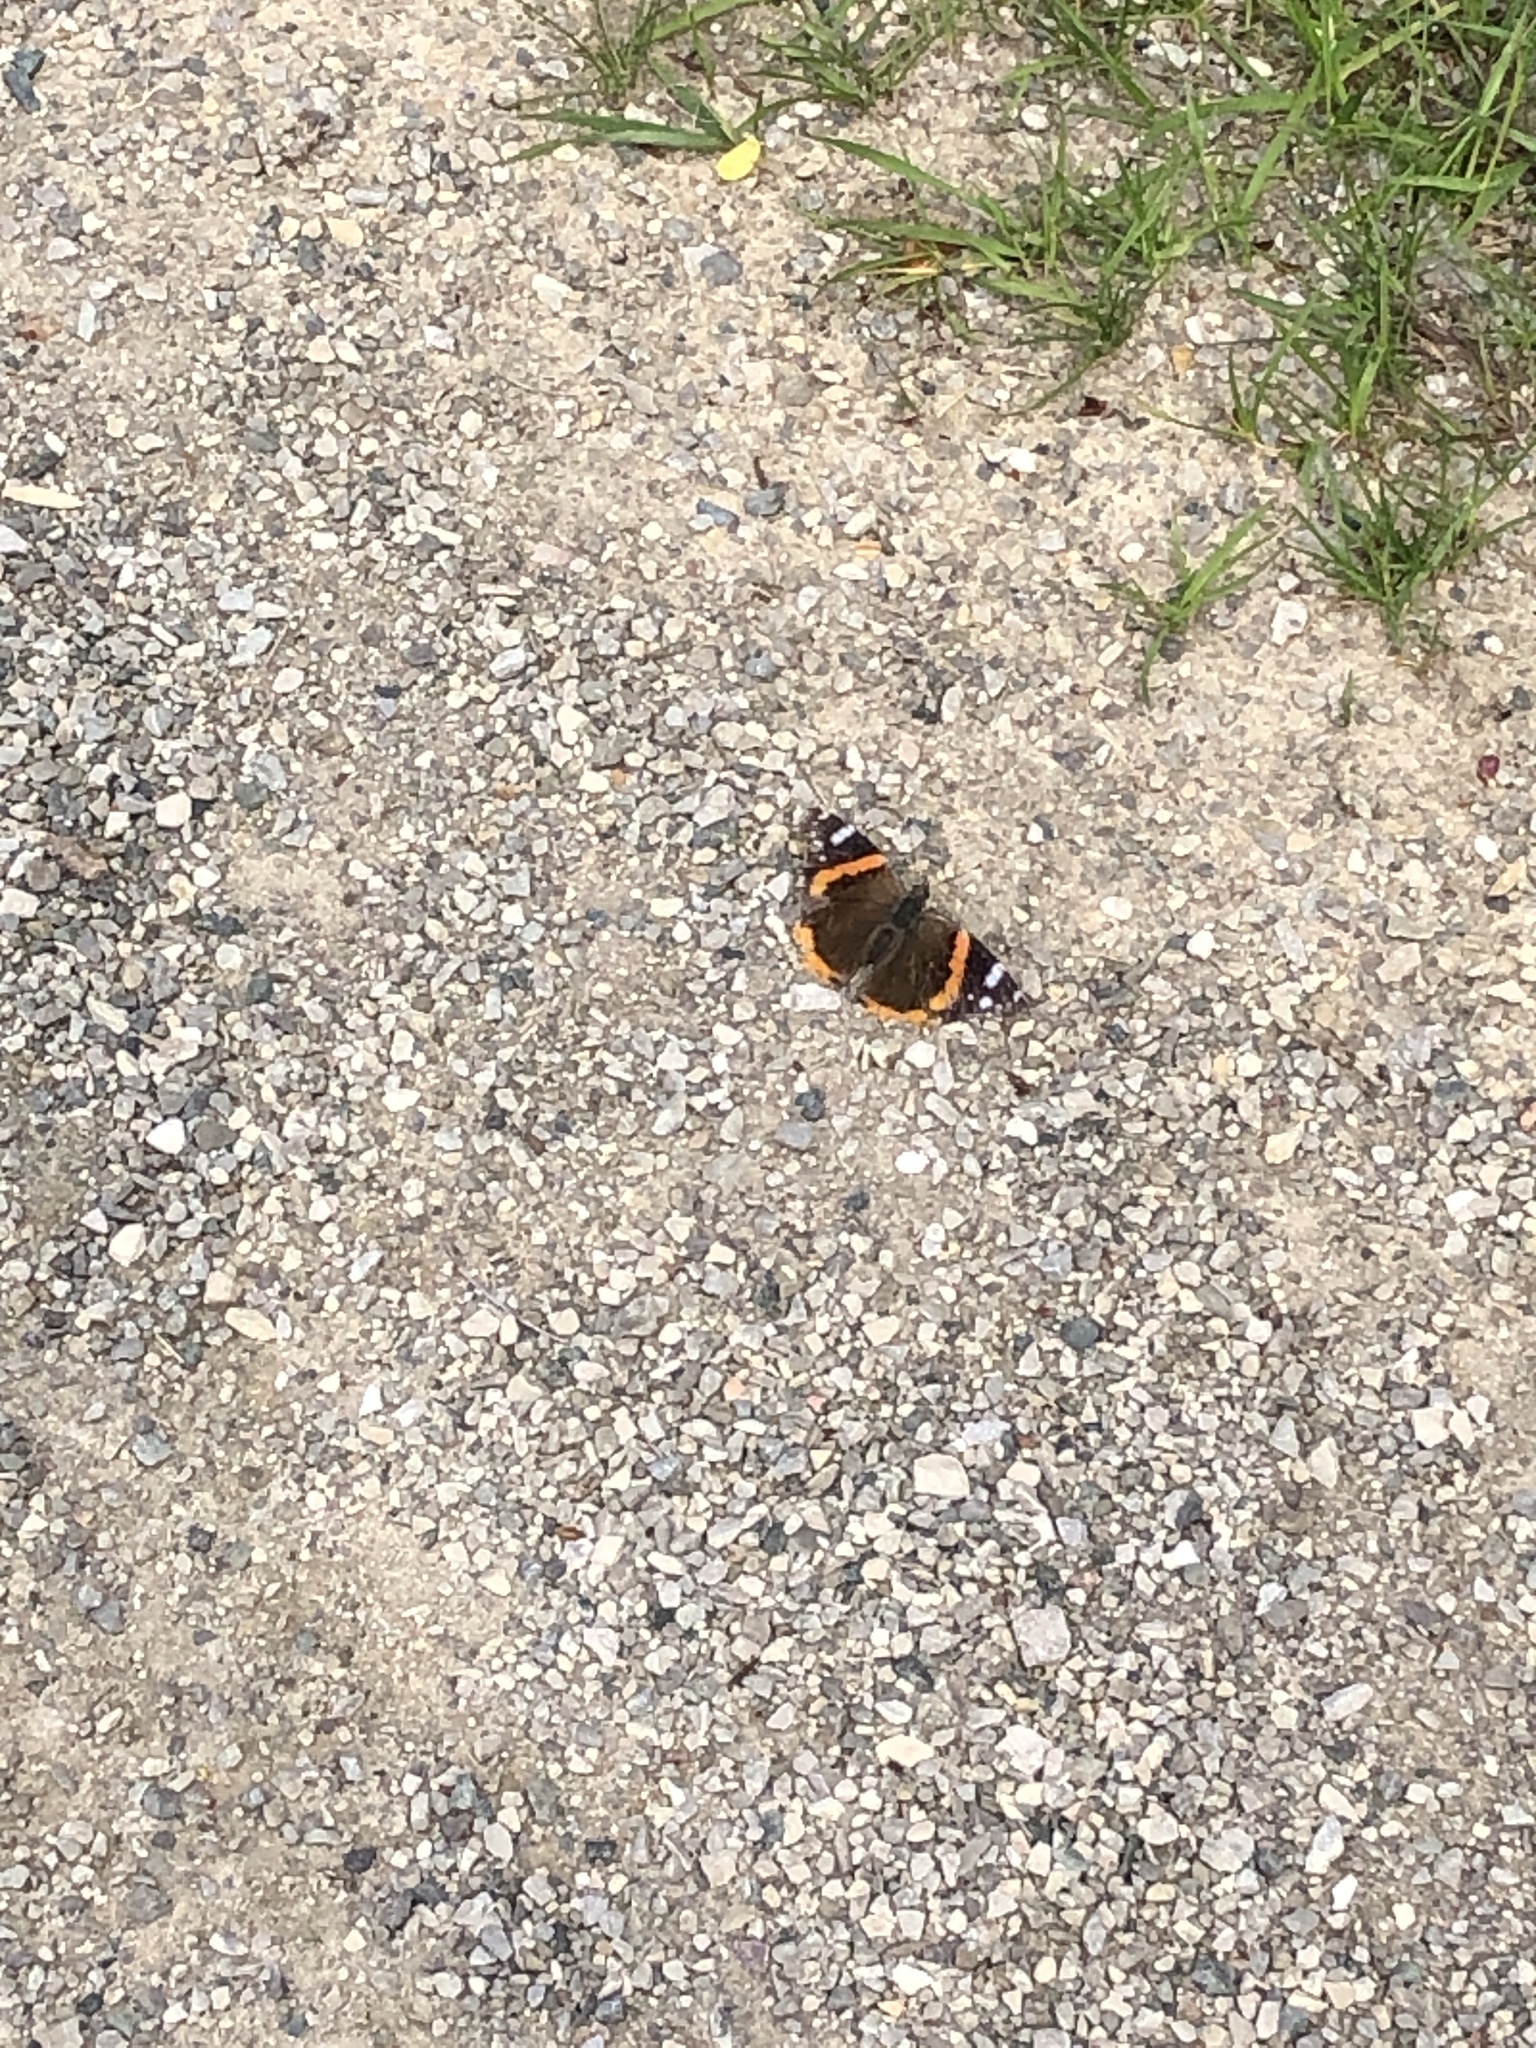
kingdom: Animalia
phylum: Arthropoda
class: Insecta
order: Lepidoptera
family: Nymphalidae
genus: Vanessa
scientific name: Vanessa atalanta
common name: Red admiral
